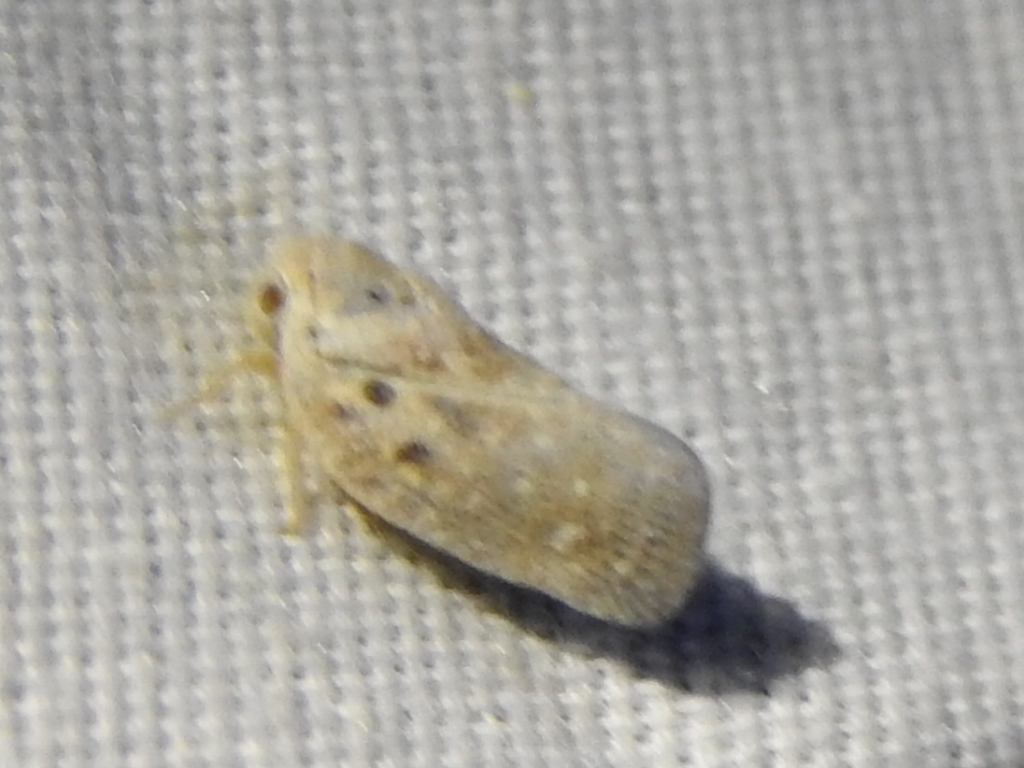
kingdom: Animalia
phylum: Arthropoda
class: Insecta
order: Hemiptera
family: Flatidae
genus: Metcalfa
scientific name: Metcalfa pruinosa
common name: Citrus flatid planthopper
